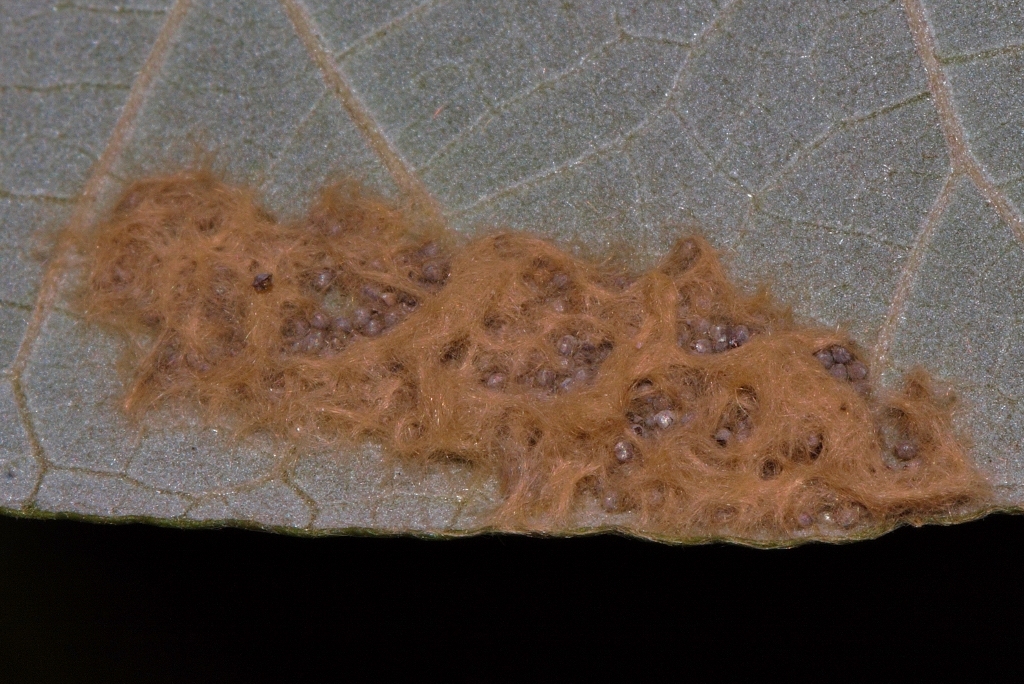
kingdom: Animalia
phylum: Arthropoda
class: Insecta
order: Lepidoptera
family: Erebidae
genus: Cyana
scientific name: Cyana pretoriae
